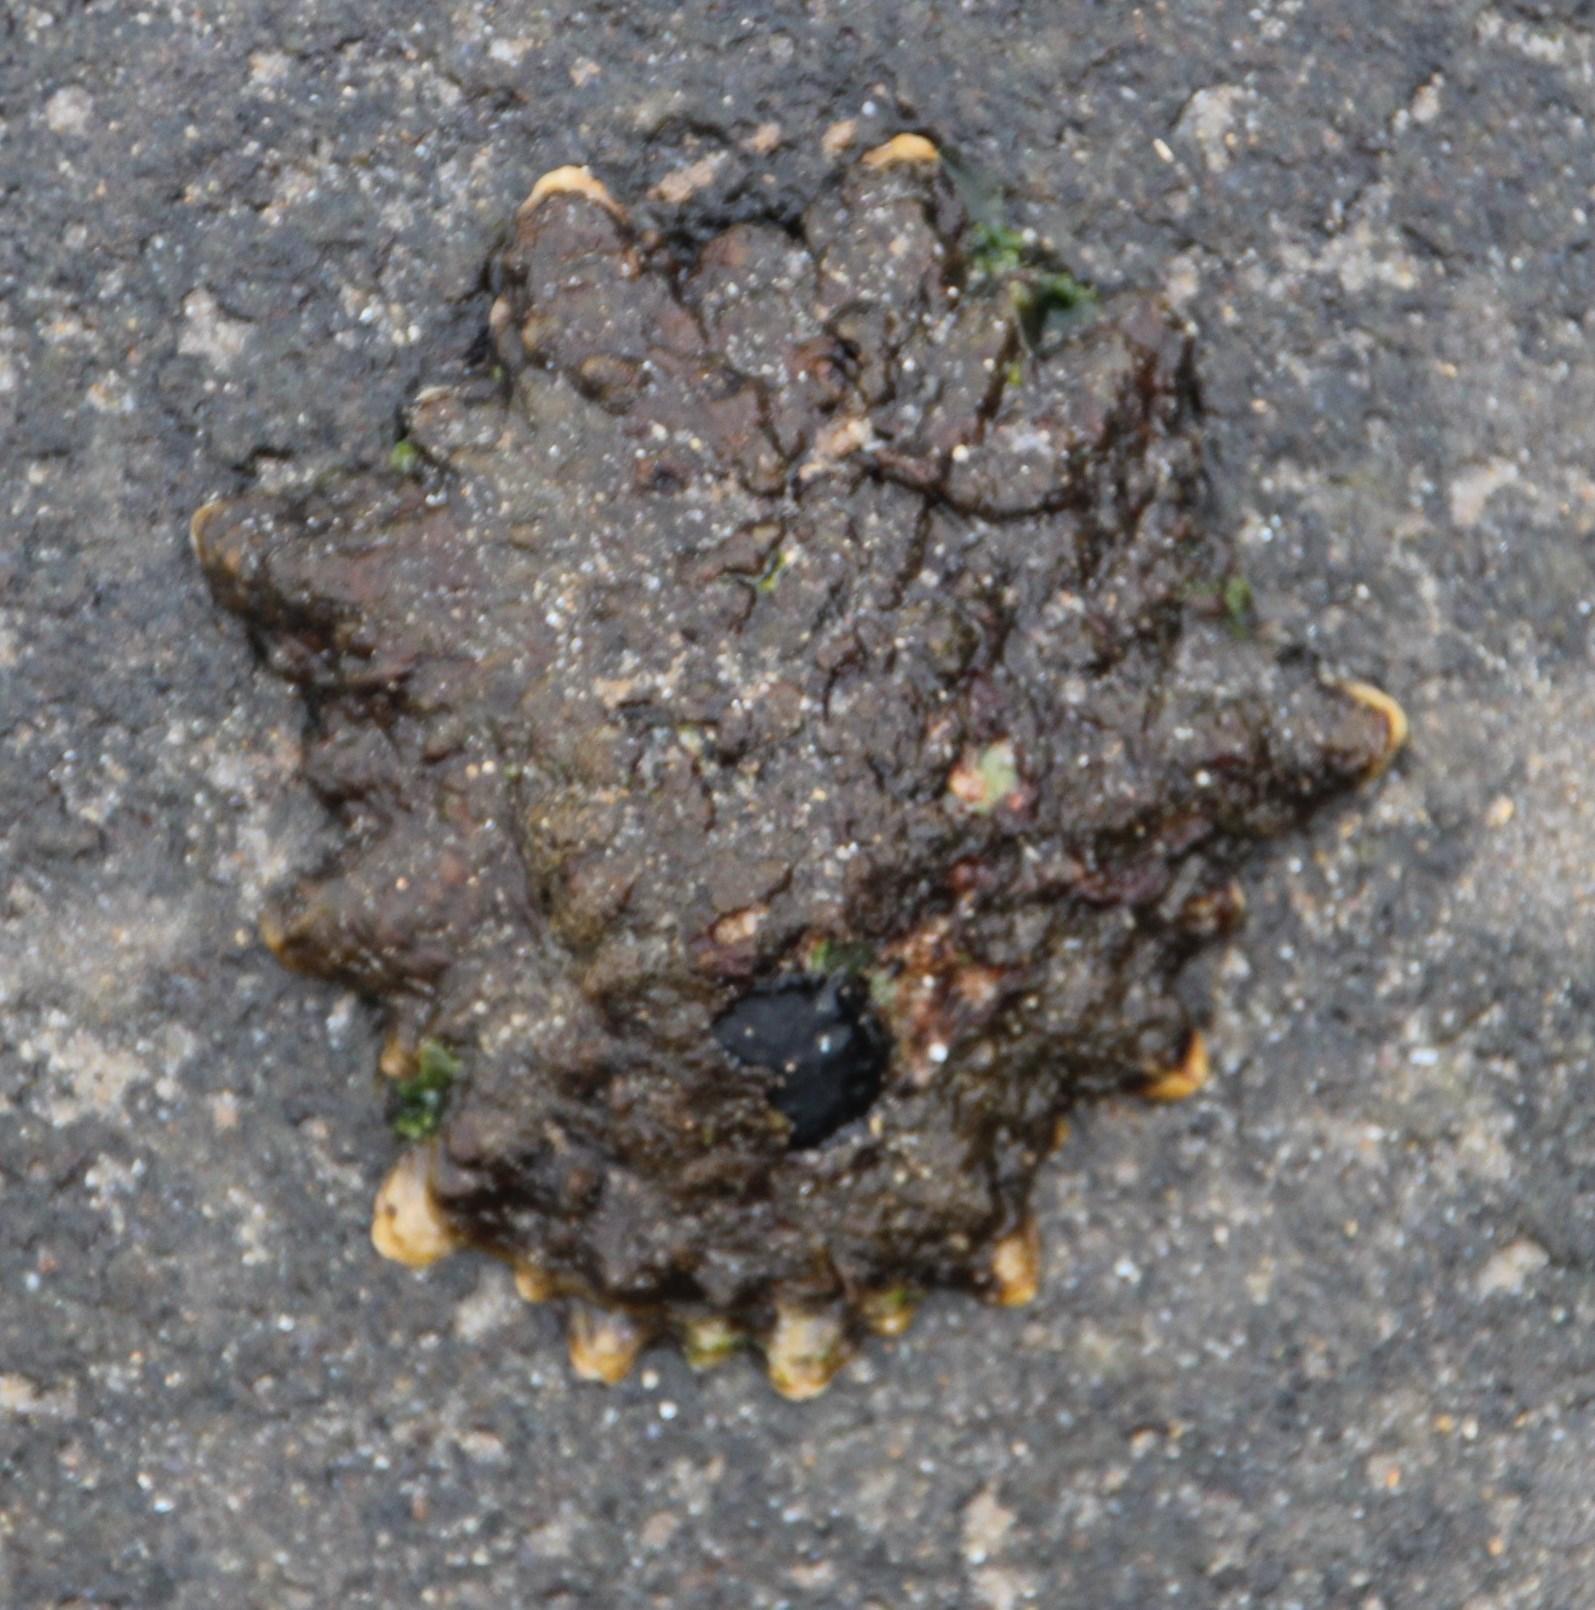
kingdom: Animalia
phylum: Mollusca
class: Gastropoda
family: Patellidae
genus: Scutellastra
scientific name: Scutellastra tabularis
